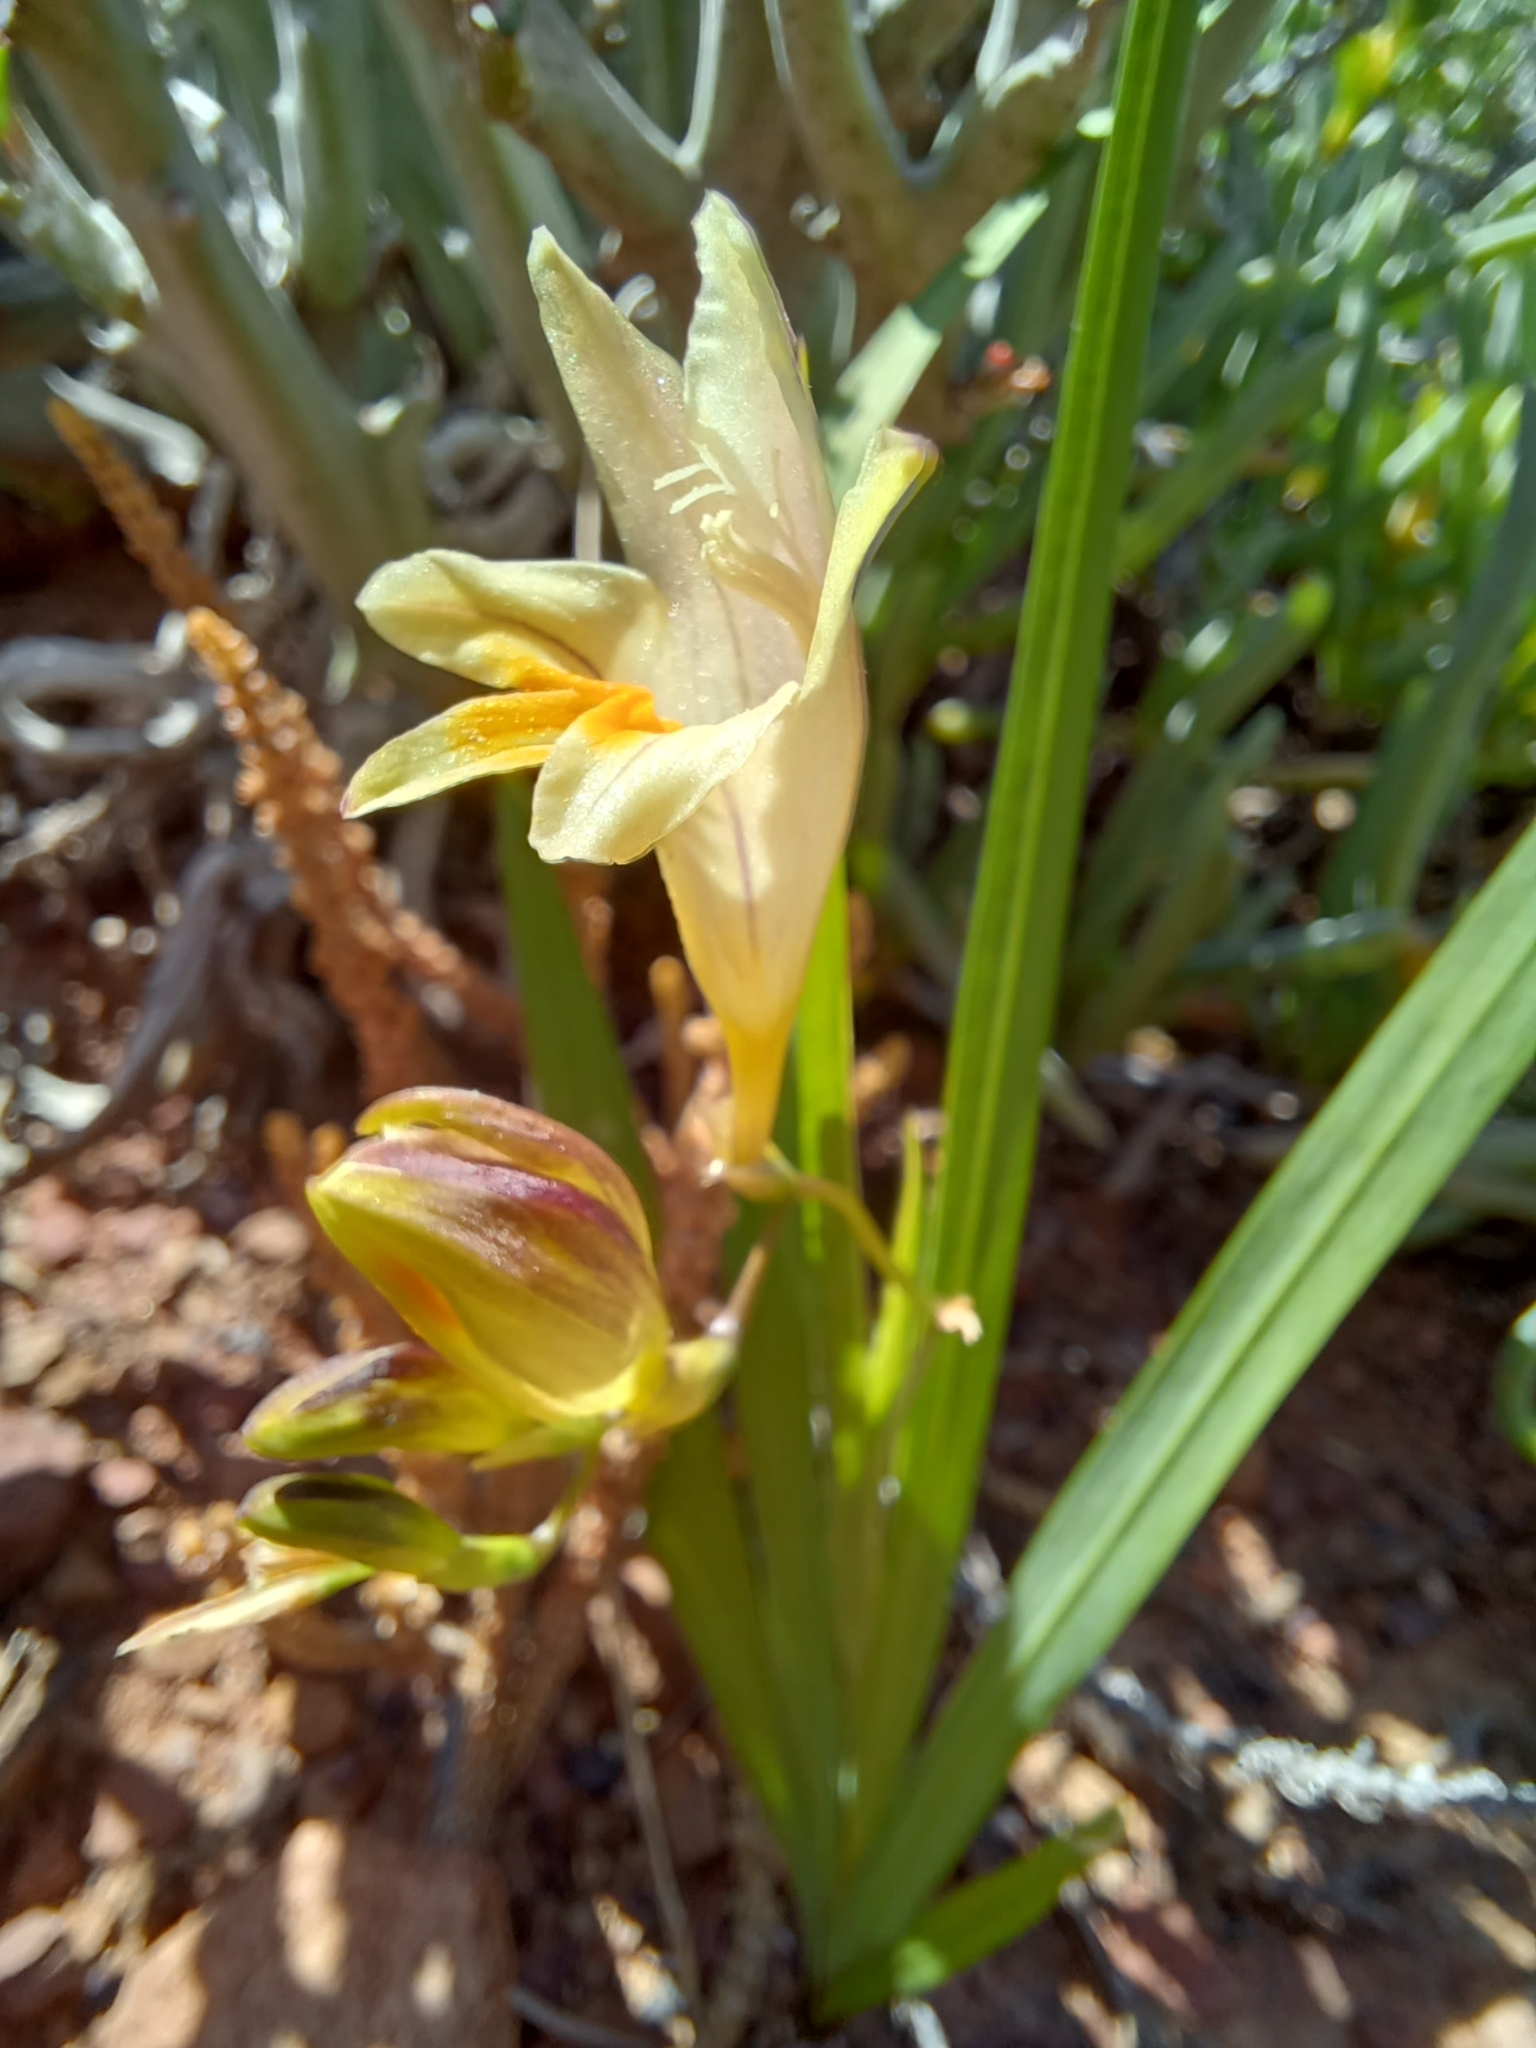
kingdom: Plantae
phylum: Tracheophyta
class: Liliopsida
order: Asparagales
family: Iridaceae
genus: Freesia
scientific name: Freesia refracta
